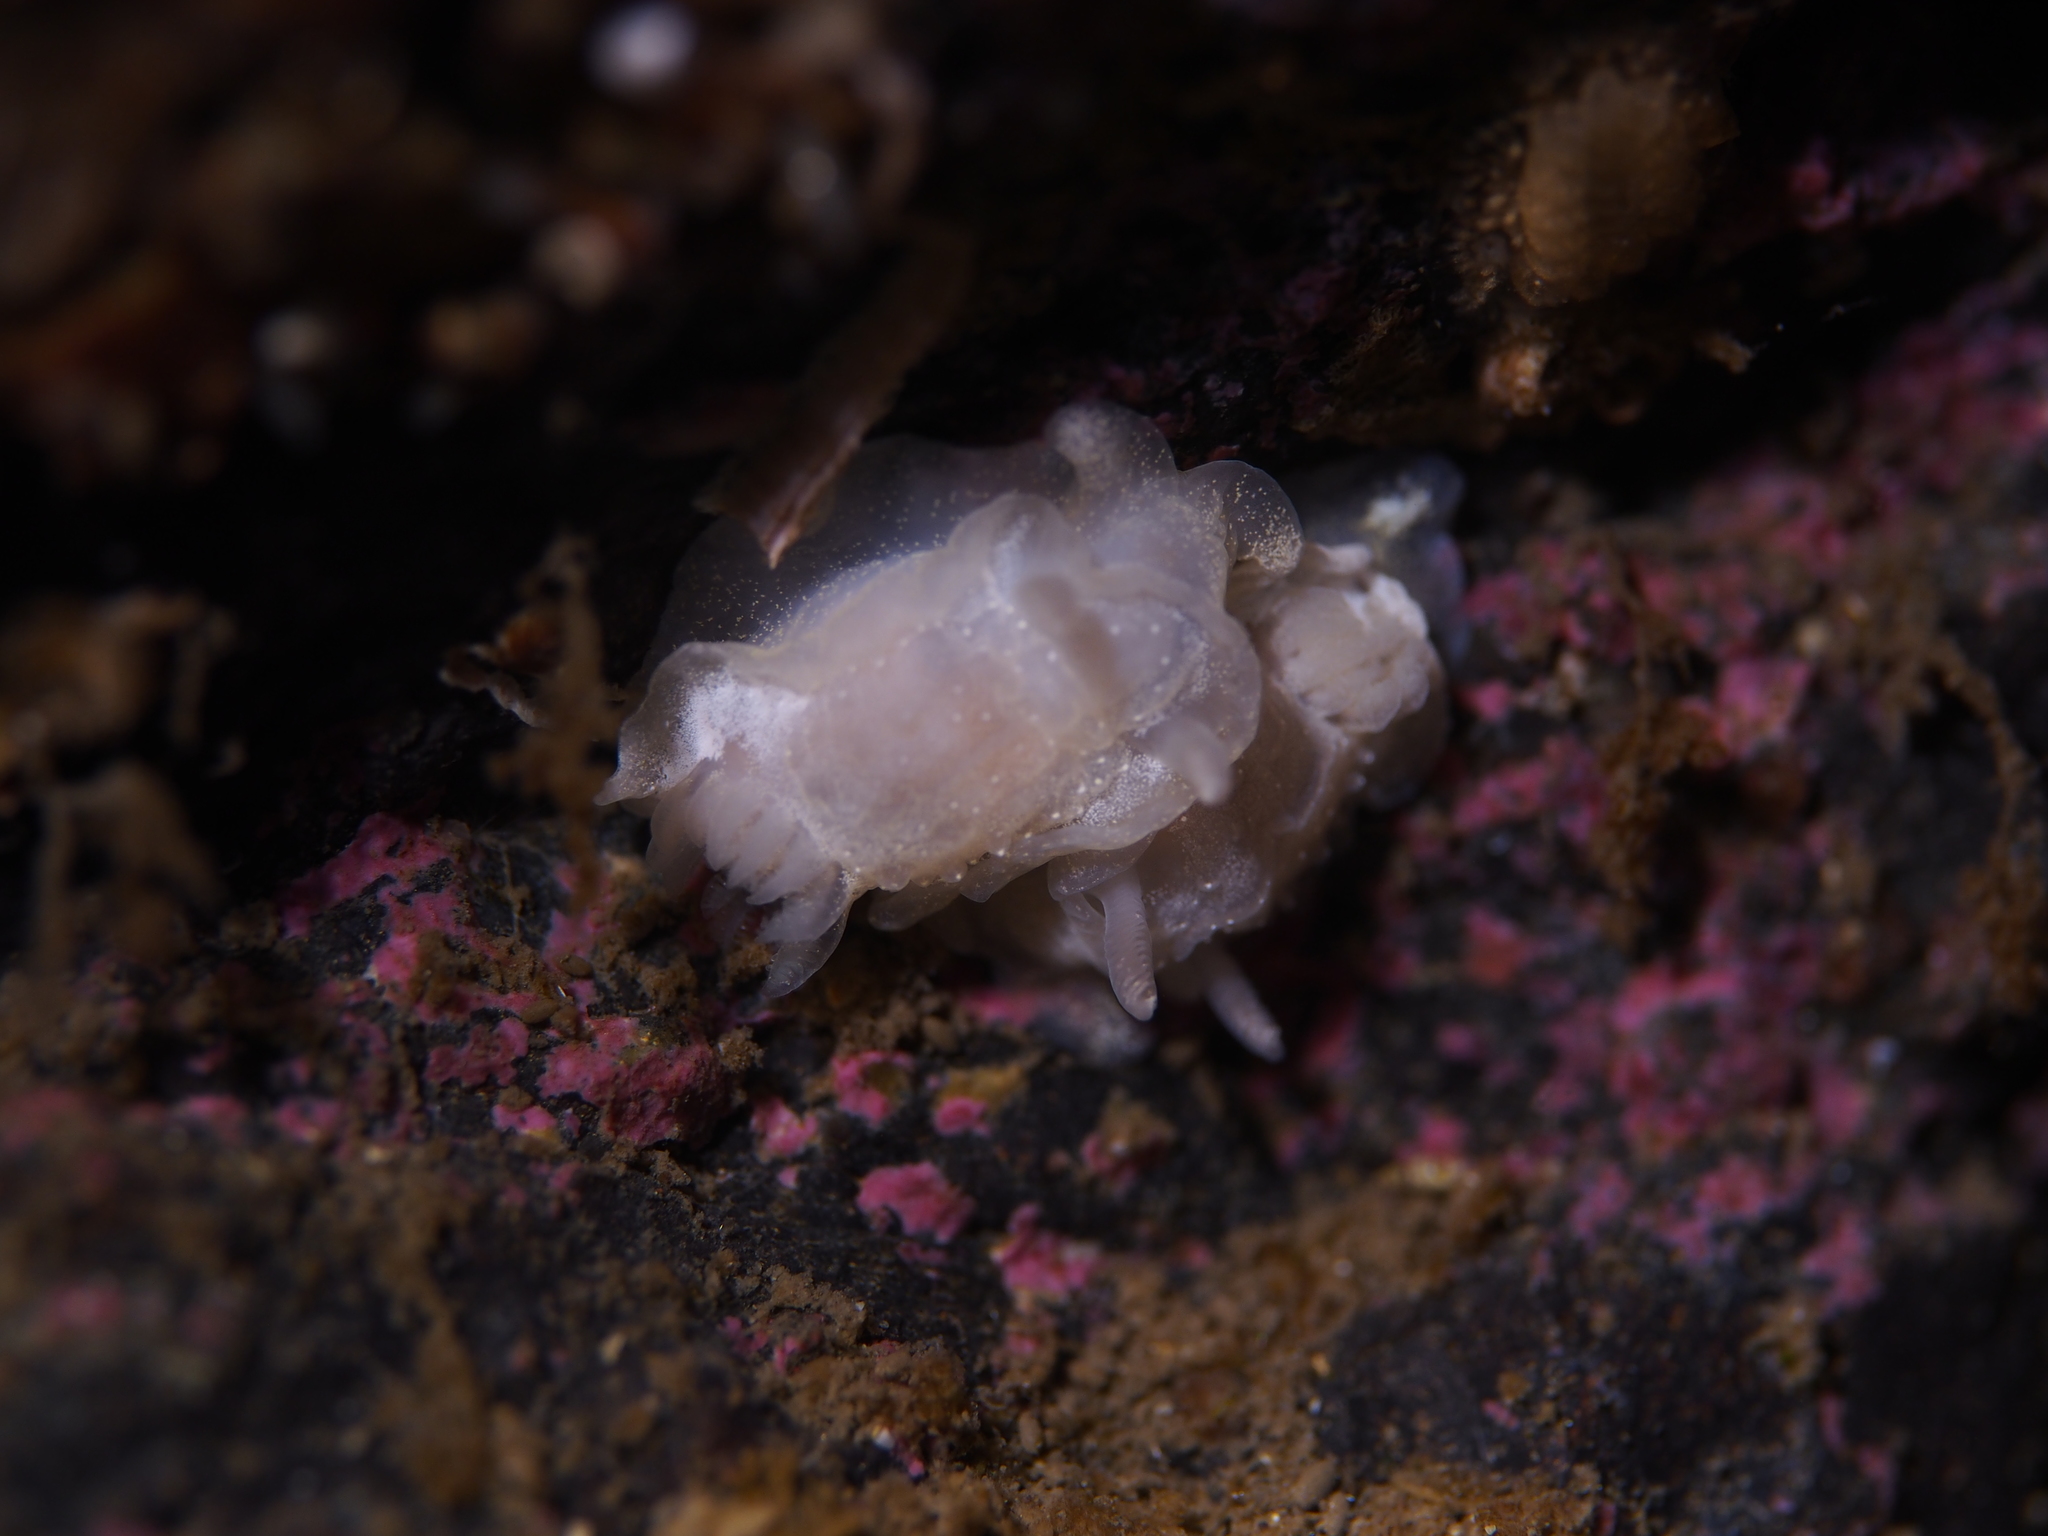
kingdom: Animalia
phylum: Mollusca
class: Gastropoda
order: Nudibranchia
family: Goniodorididae
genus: Okenia
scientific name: Okenia
